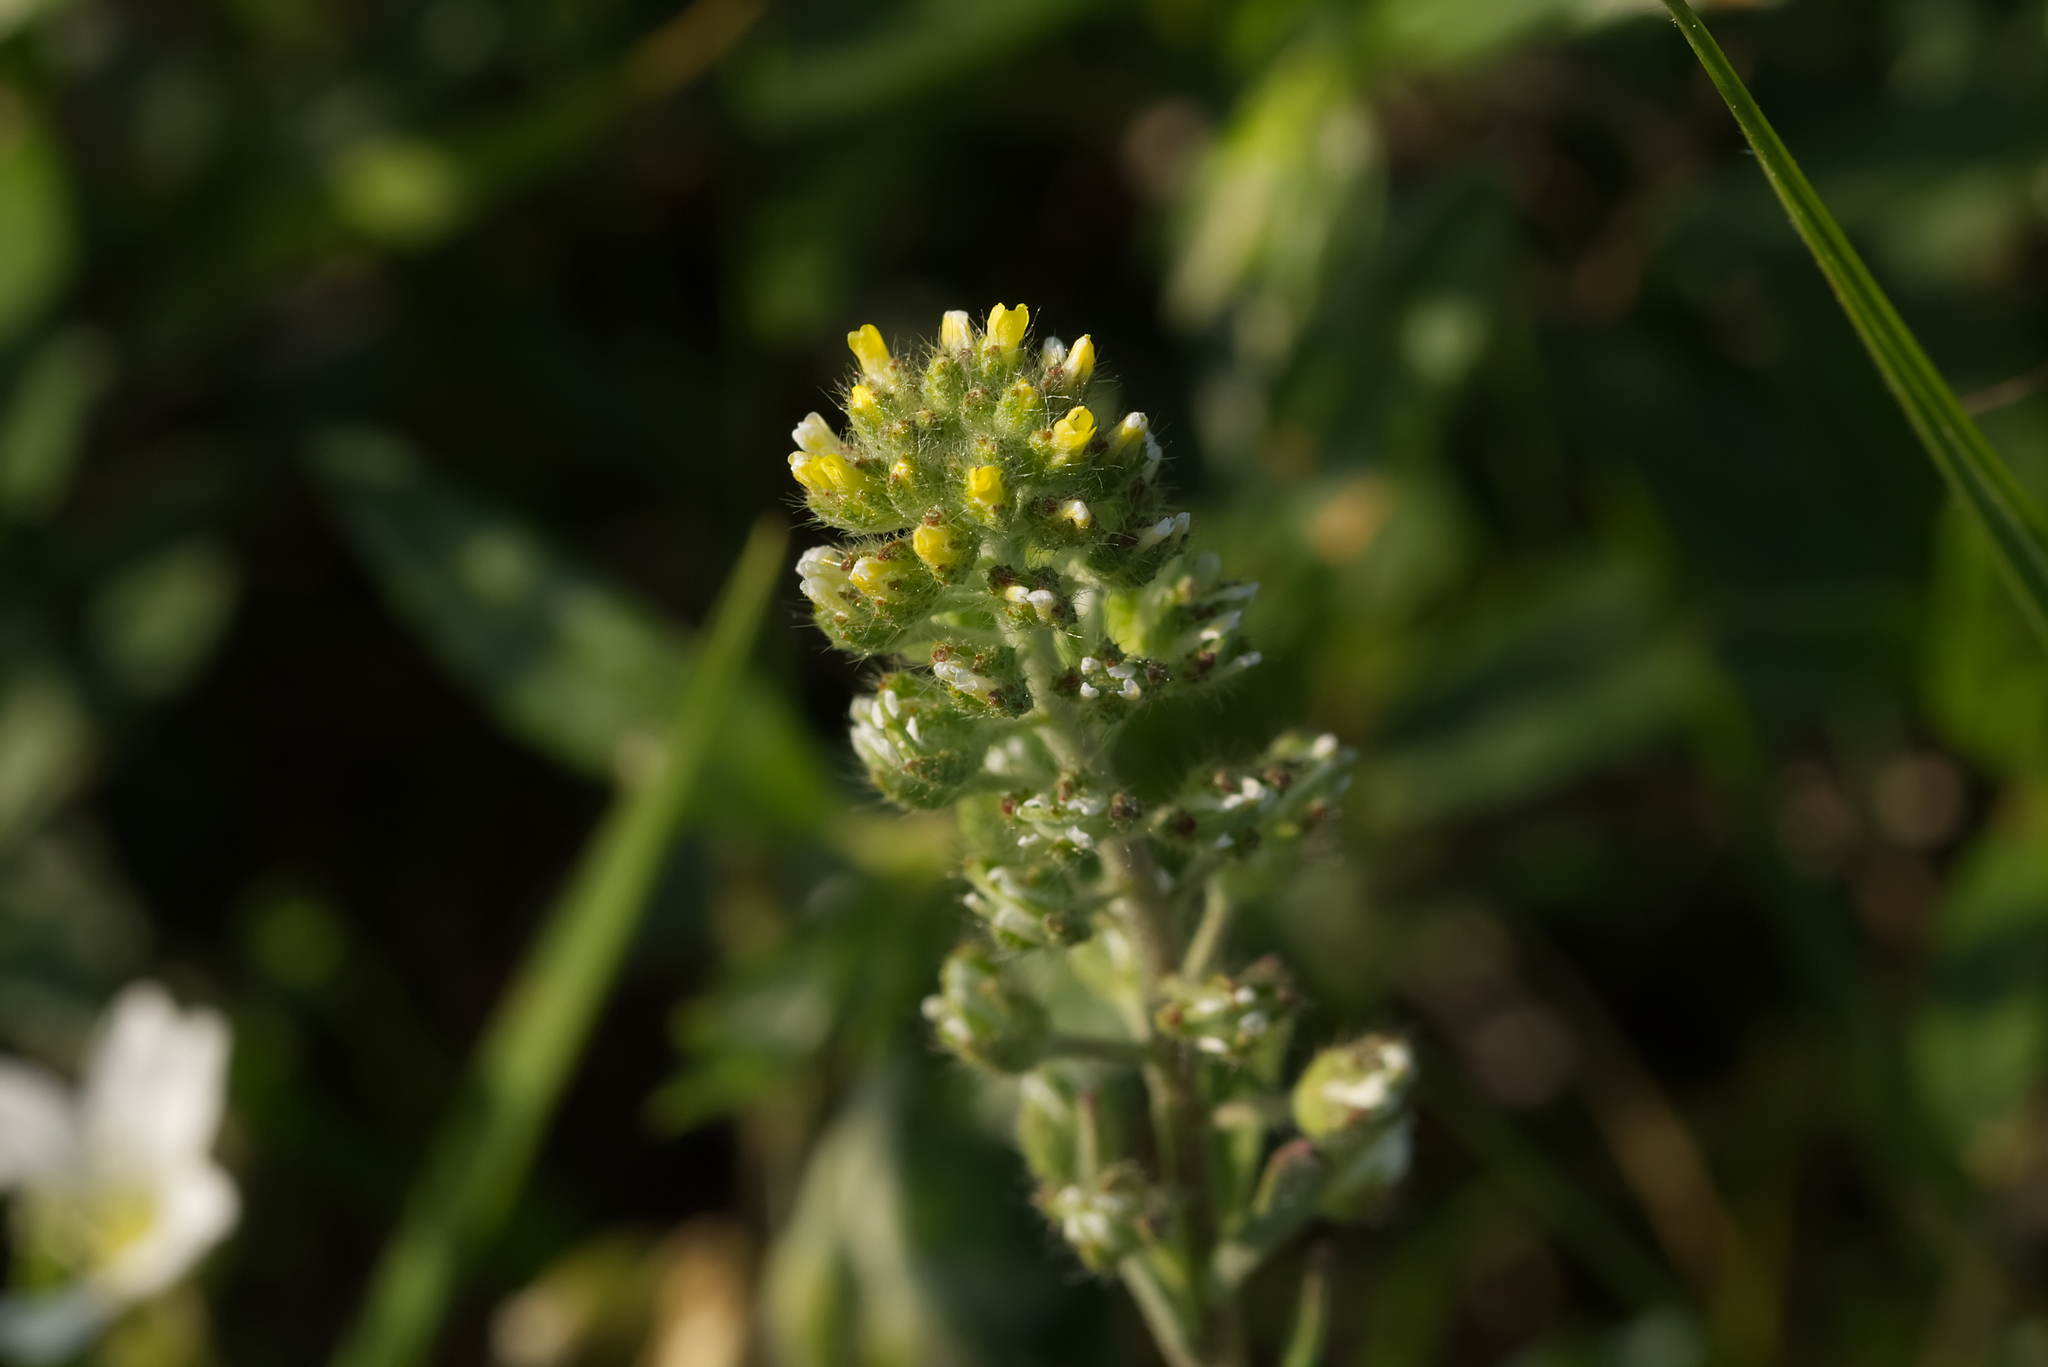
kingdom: Plantae
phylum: Tracheophyta
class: Magnoliopsida
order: Brassicales
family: Brassicaceae
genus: Alyssum
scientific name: Alyssum alyssoides
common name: Small alison
